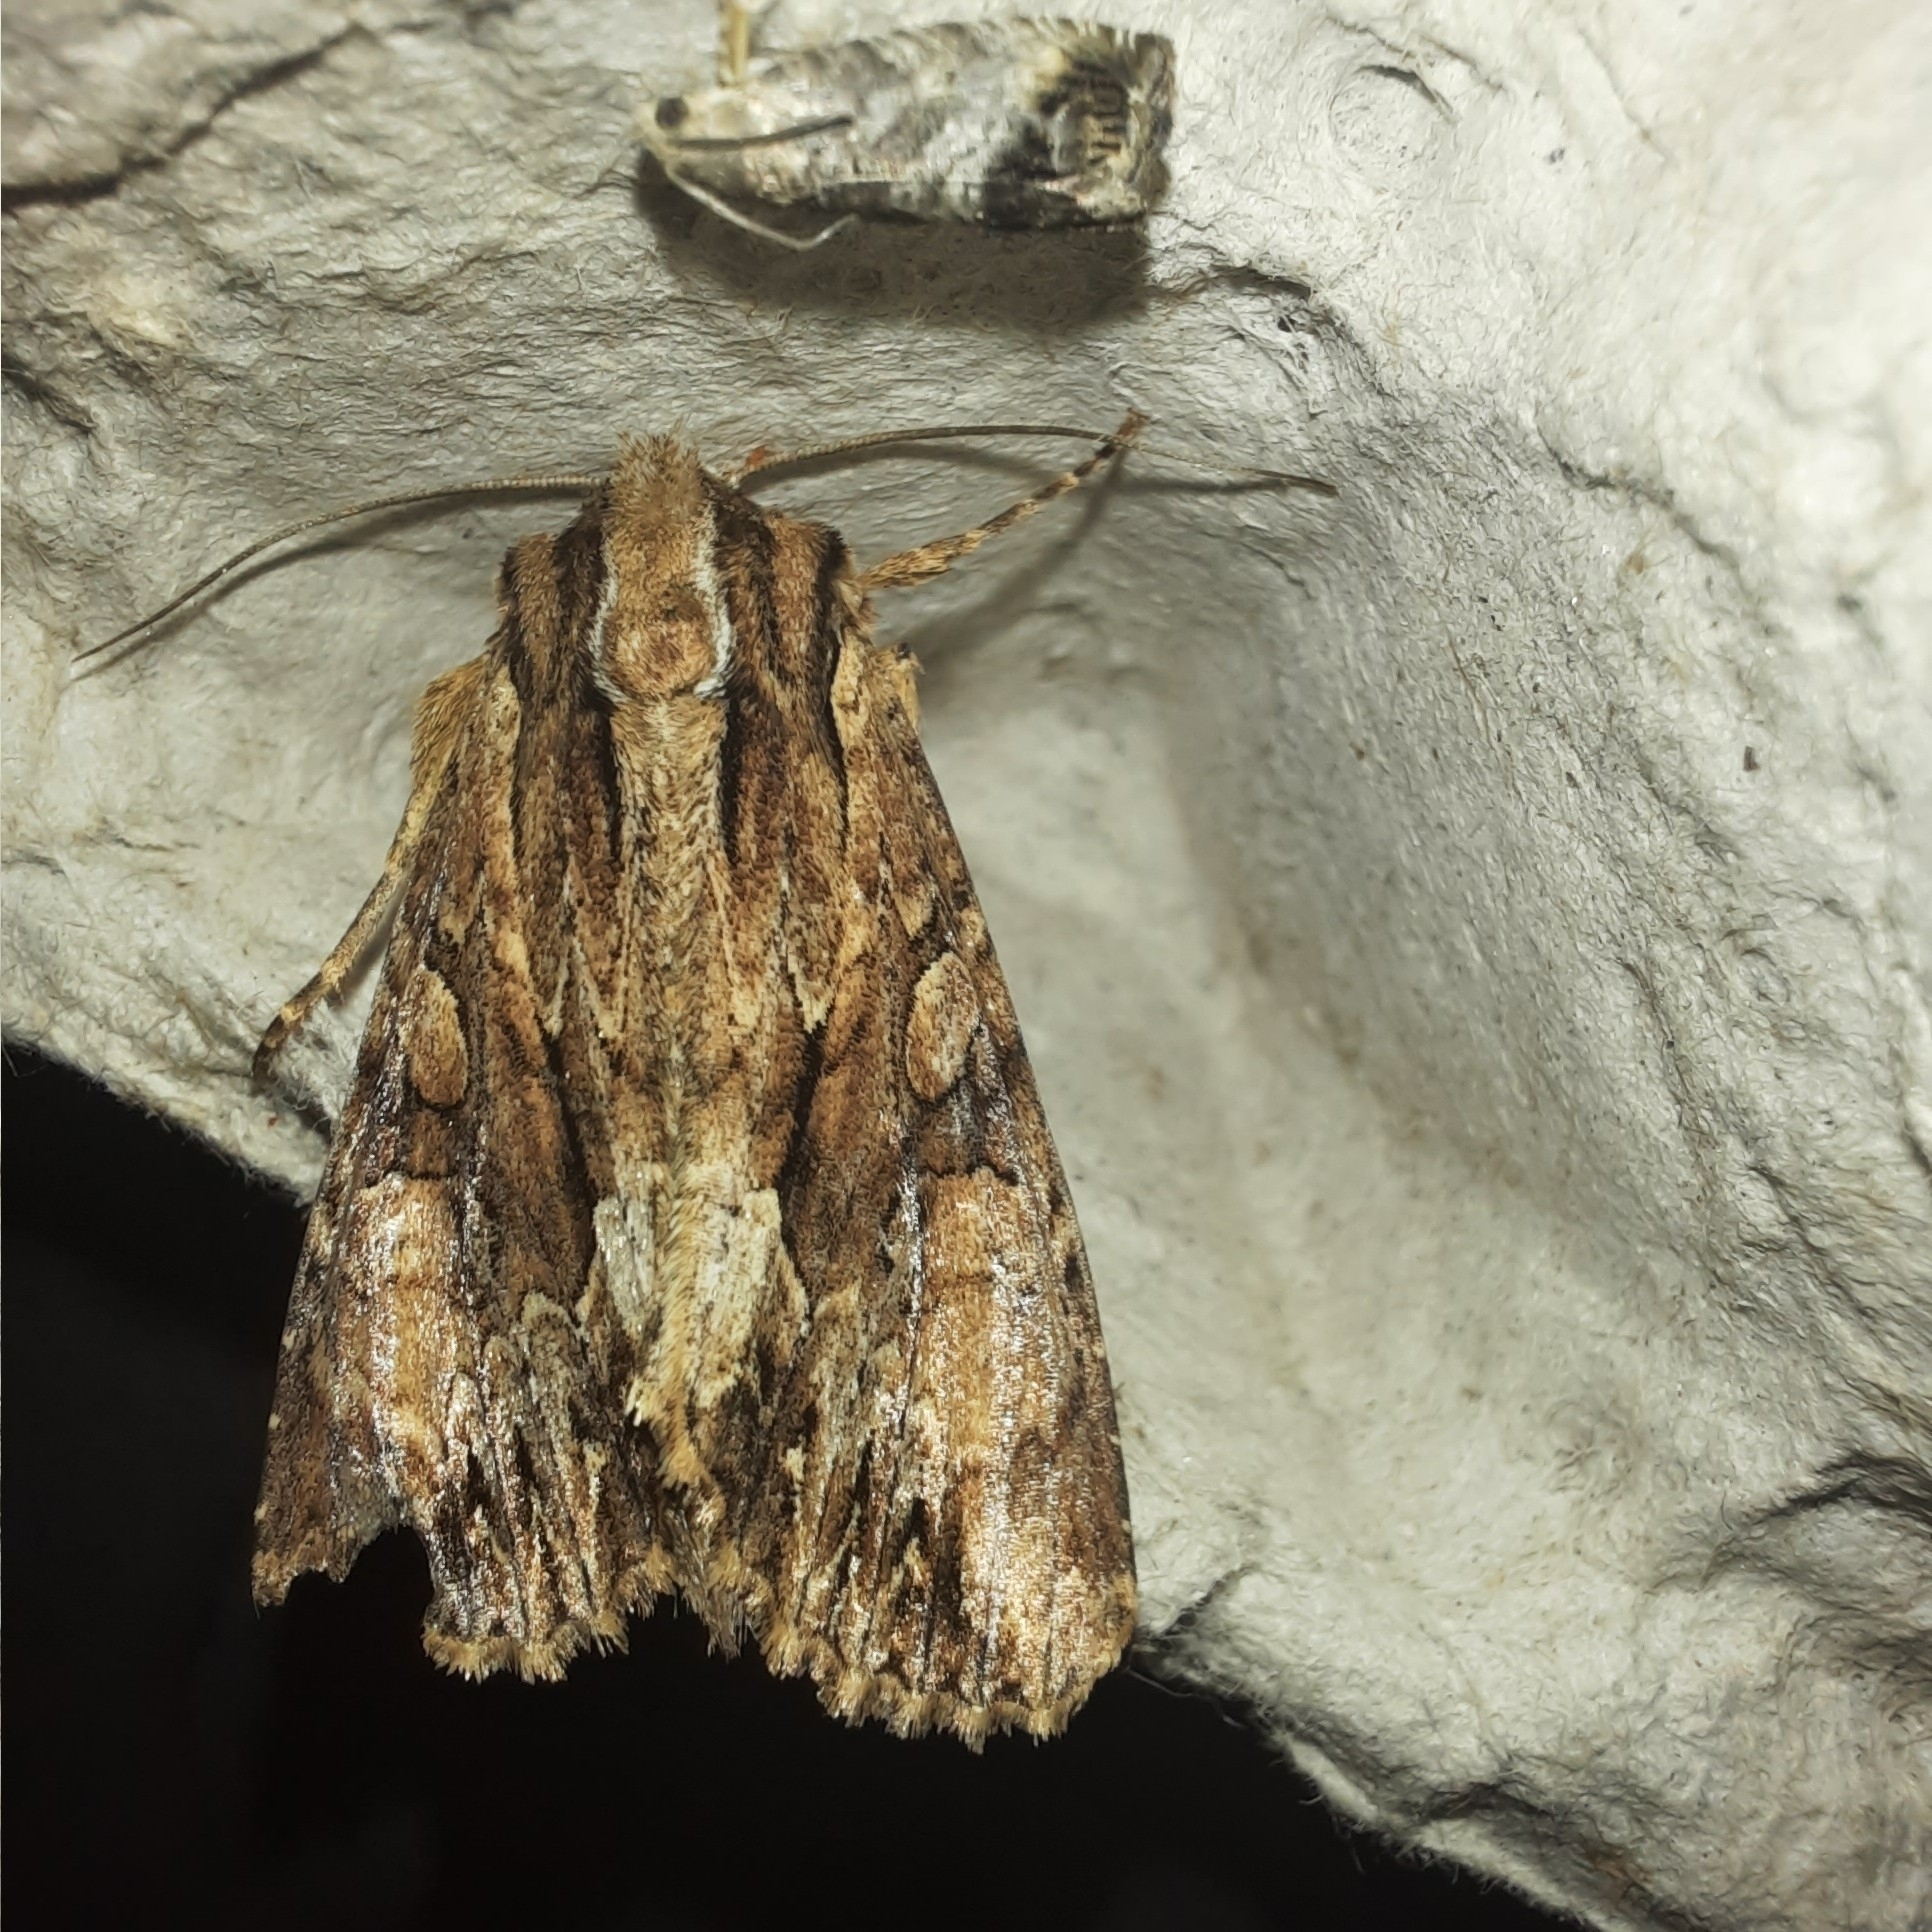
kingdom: Animalia
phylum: Arthropoda
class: Insecta
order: Lepidoptera
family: Noctuidae
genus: Apamea
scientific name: Apamea monoglypha
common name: Dark arches
